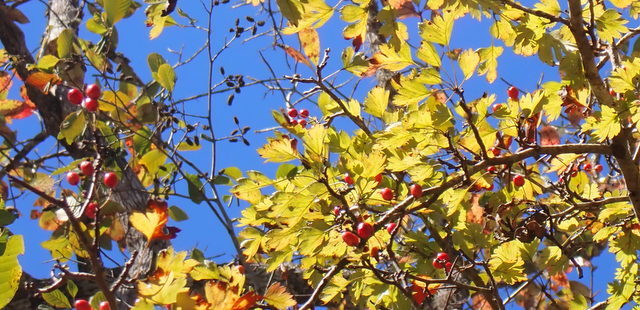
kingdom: Plantae
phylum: Tracheophyta
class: Magnoliopsida
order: Rosales
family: Rosaceae
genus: Crataegus
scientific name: Crataegus marshallii
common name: Parsley-hawthorn
